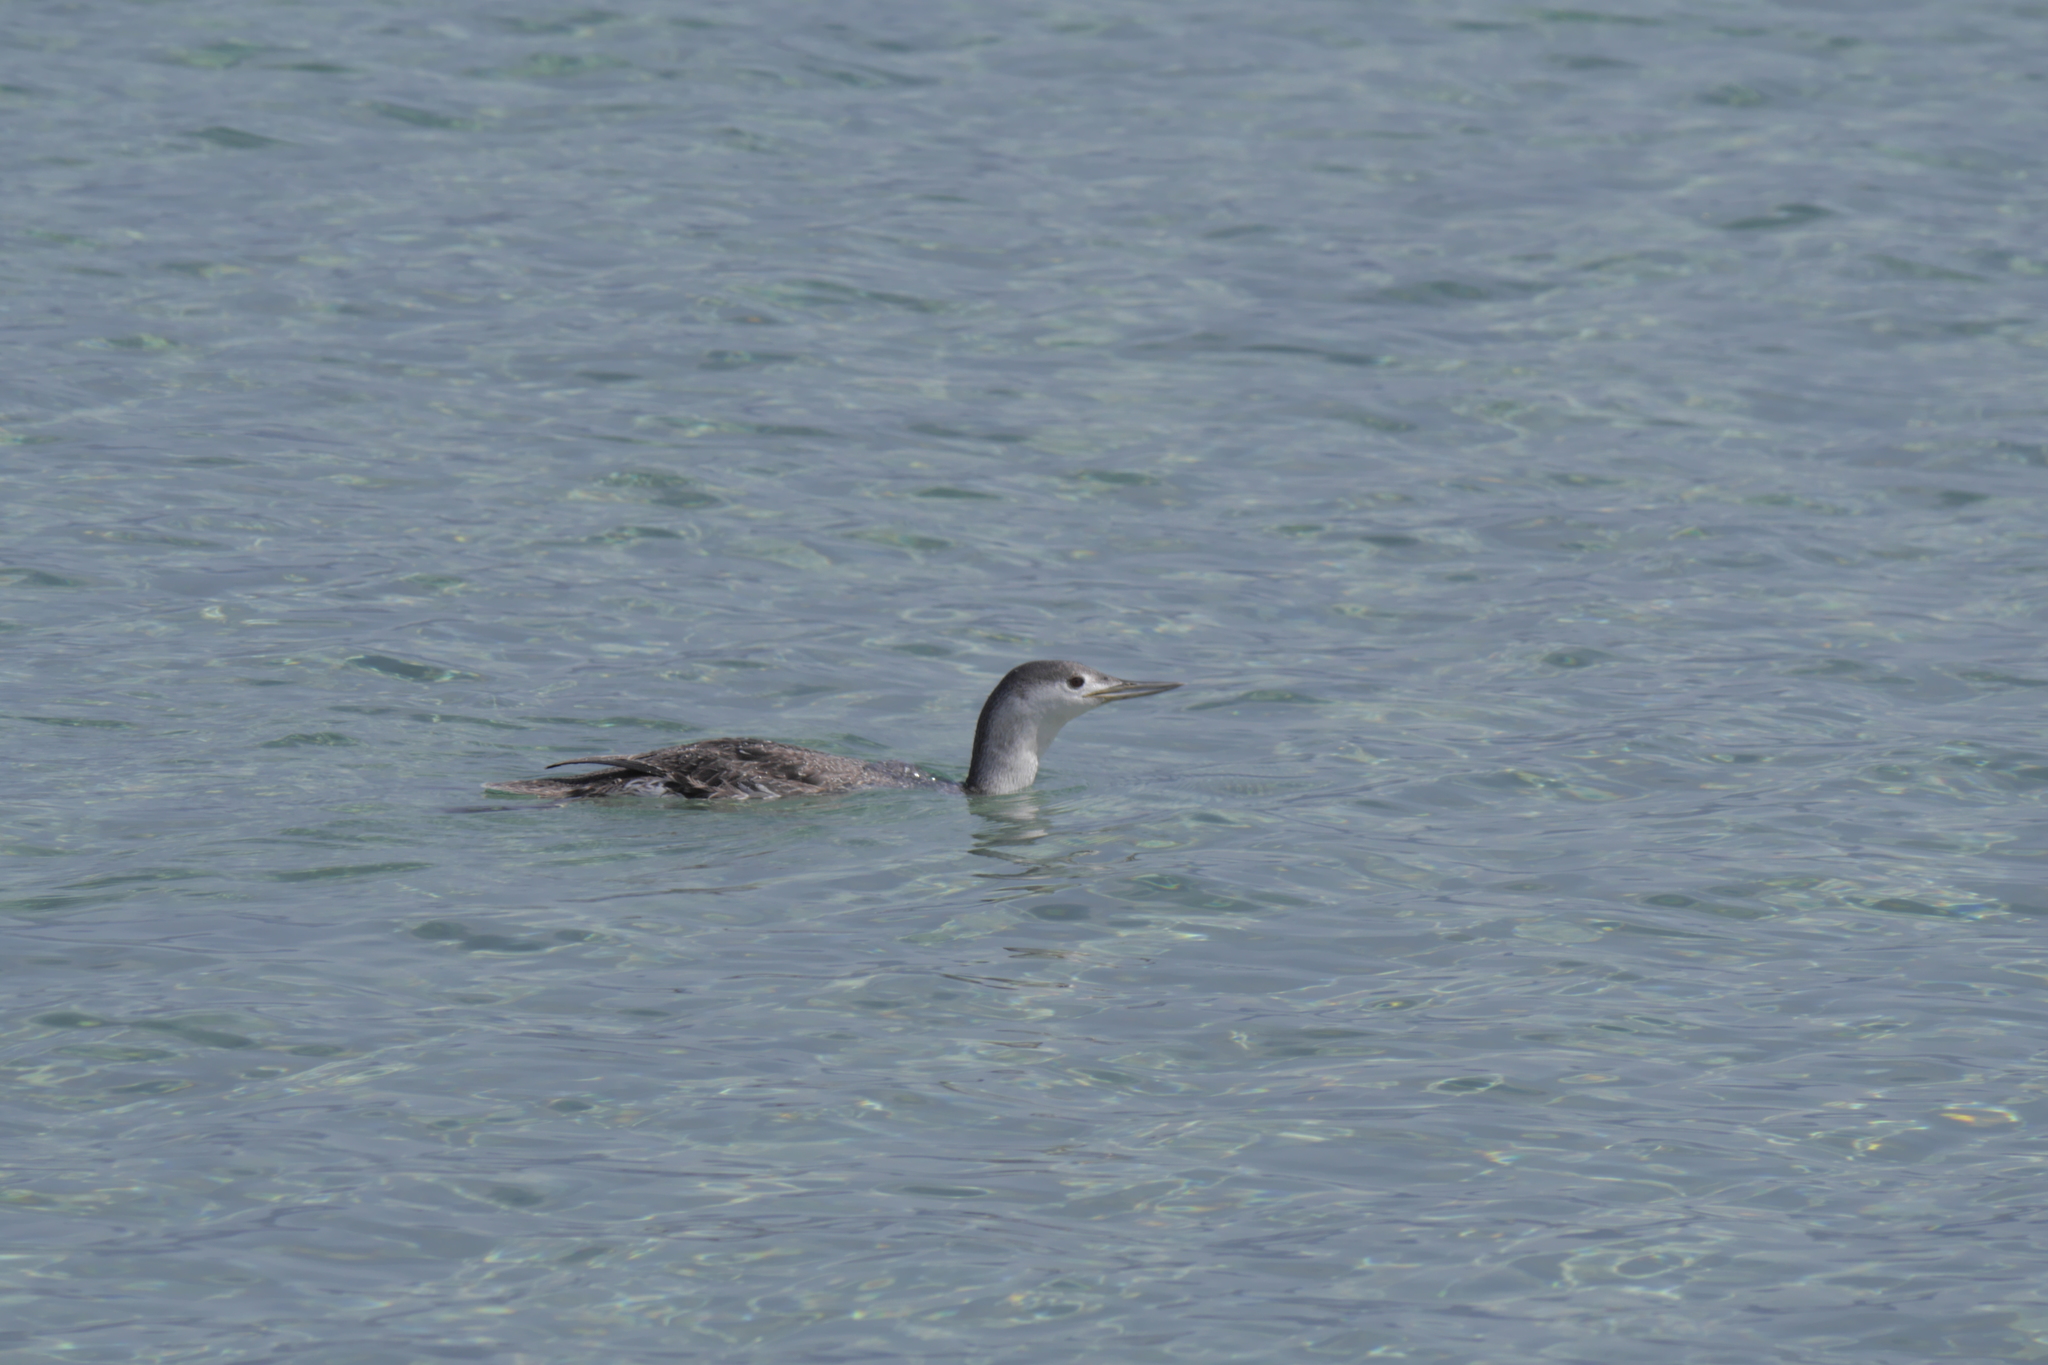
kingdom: Animalia
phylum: Chordata
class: Aves
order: Gaviiformes
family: Gaviidae
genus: Gavia
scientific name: Gavia stellata
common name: Red-throated loon
